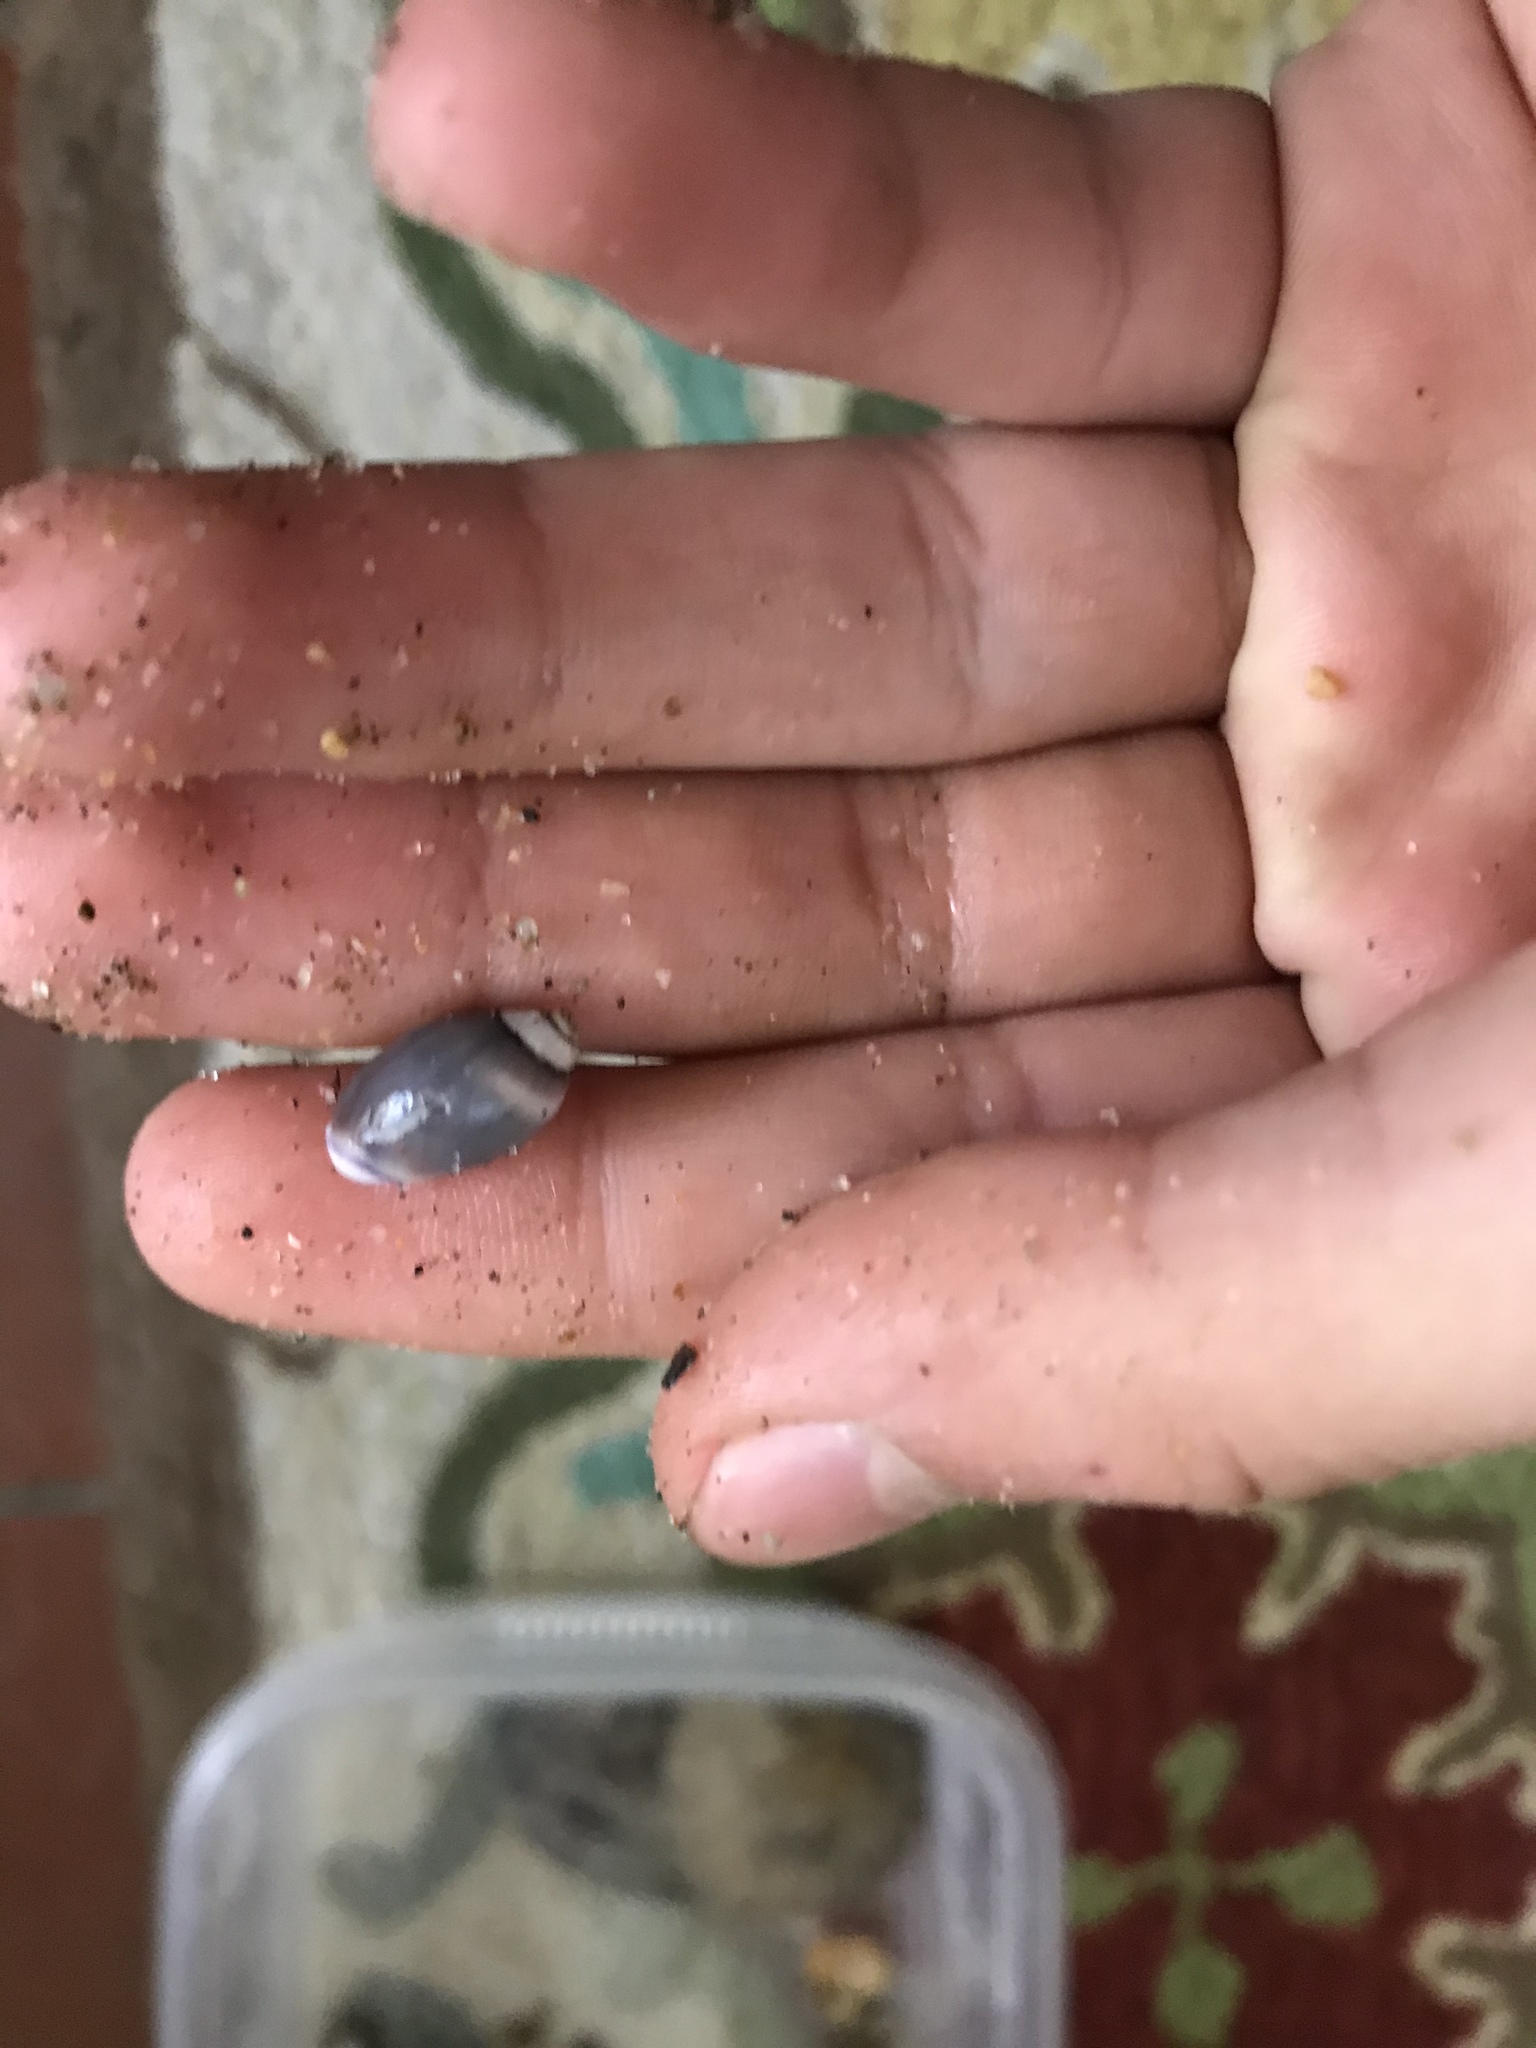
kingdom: Animalia
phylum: Mollusca
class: Gastropoda
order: Neogastropoda
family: Olividae
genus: Callianax
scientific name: Callianax biplicata
